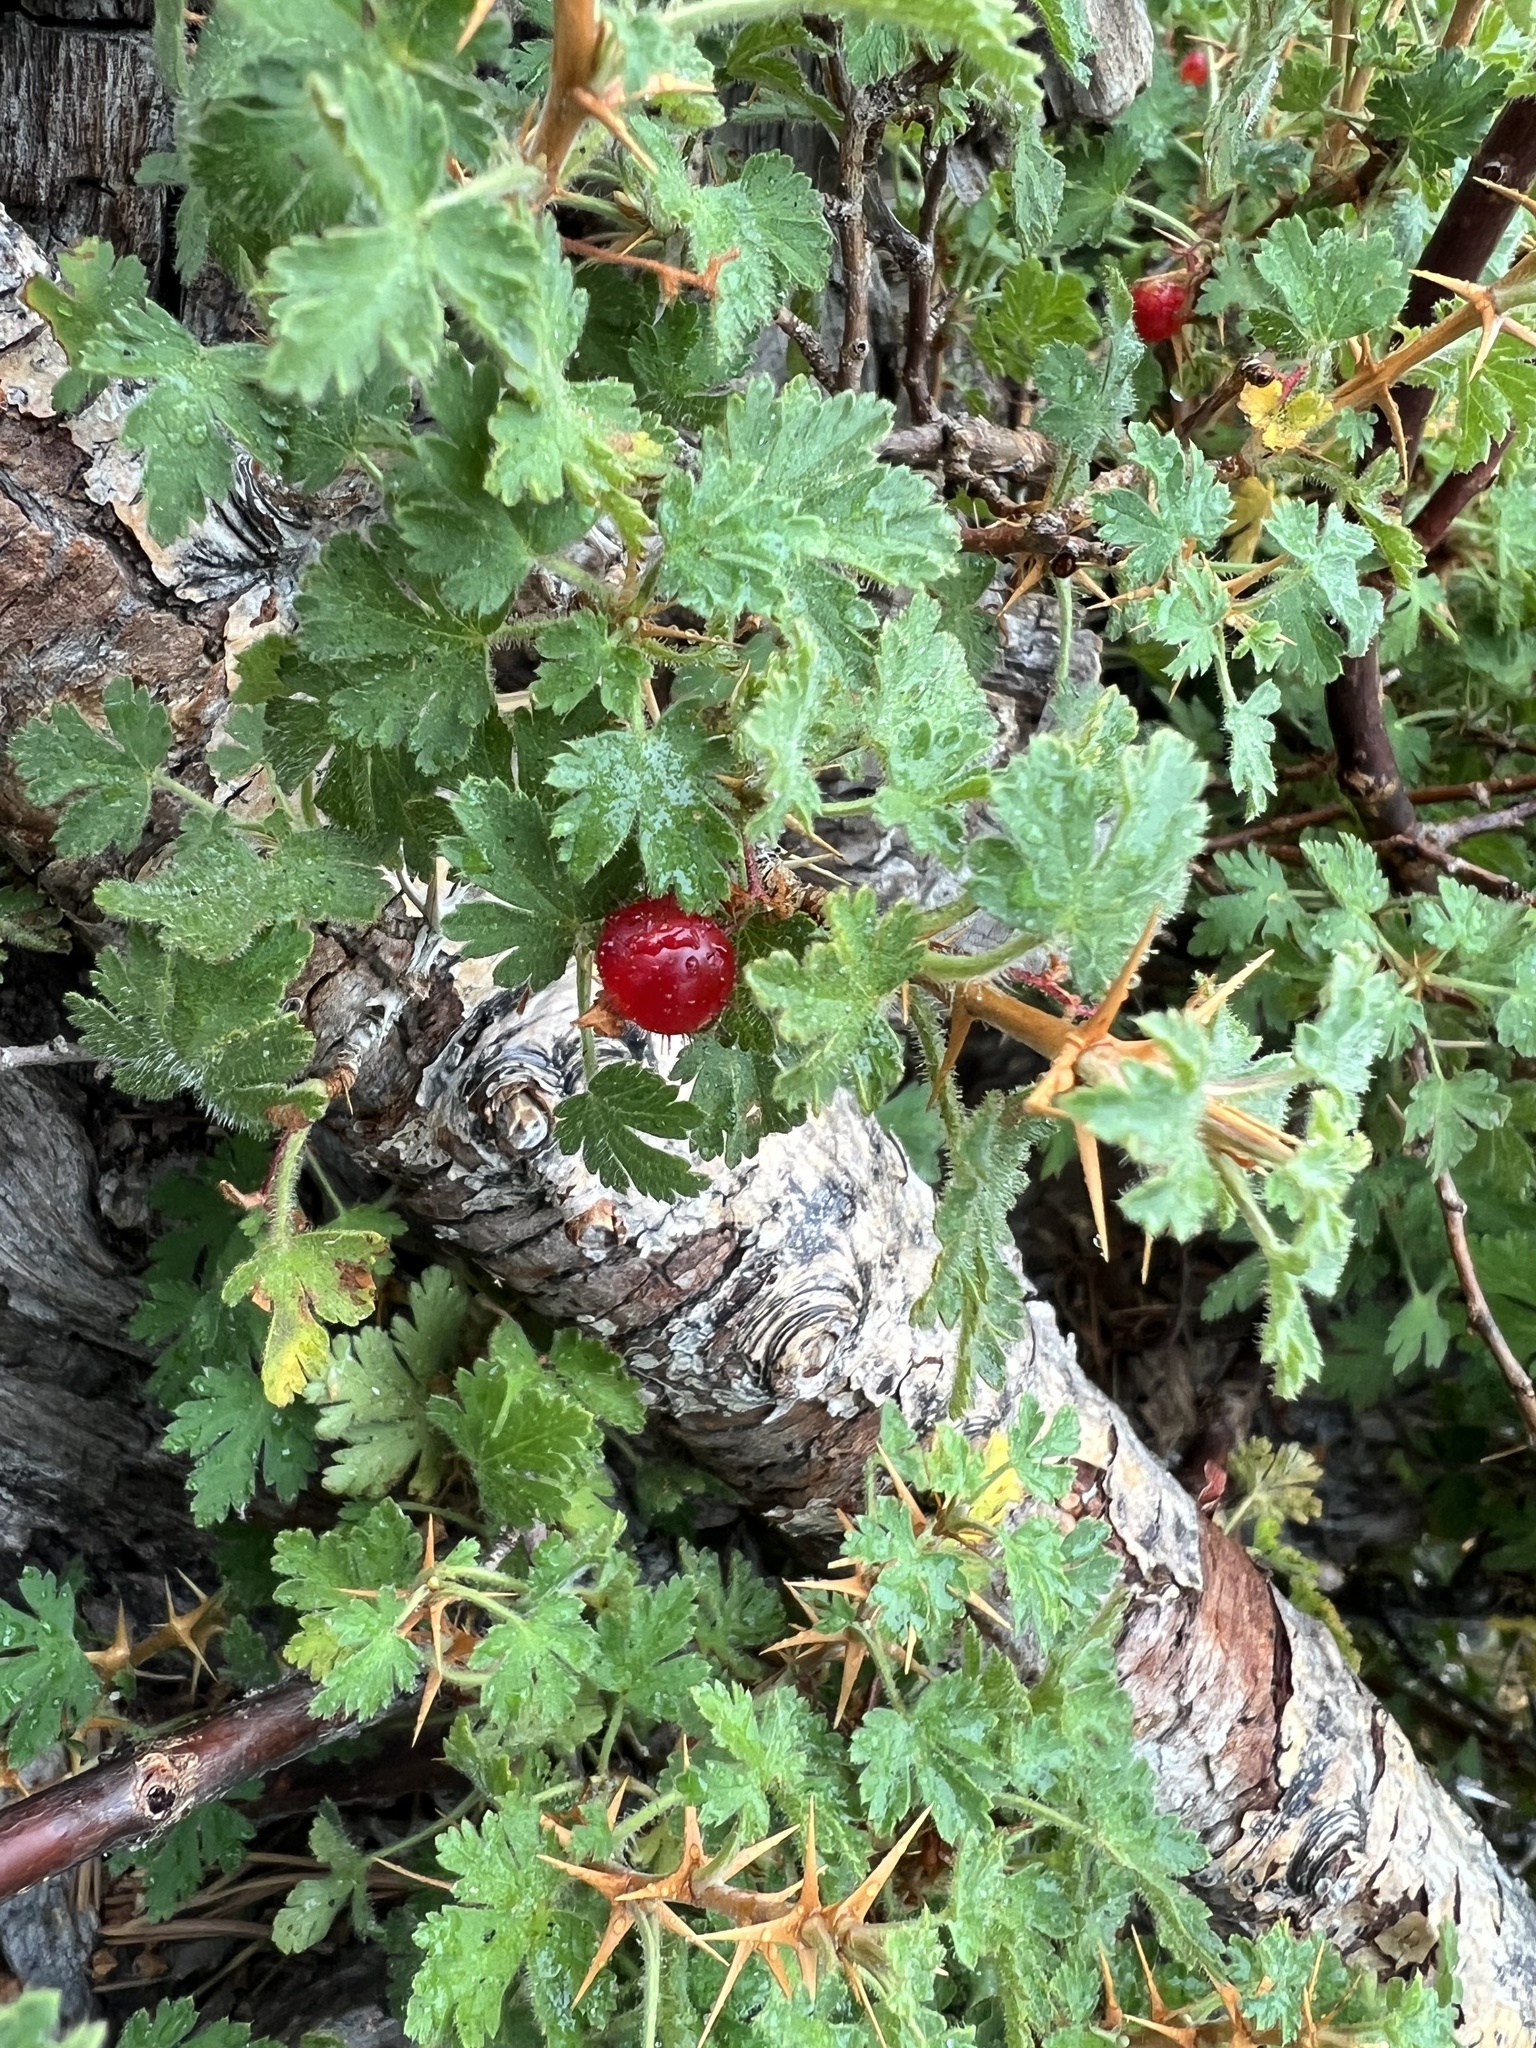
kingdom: Plantae
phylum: Tracheophyta
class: Magnoliopsida
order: Saxifragales
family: Grossulariaceae
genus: Ribes
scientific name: Ribes montigenum
